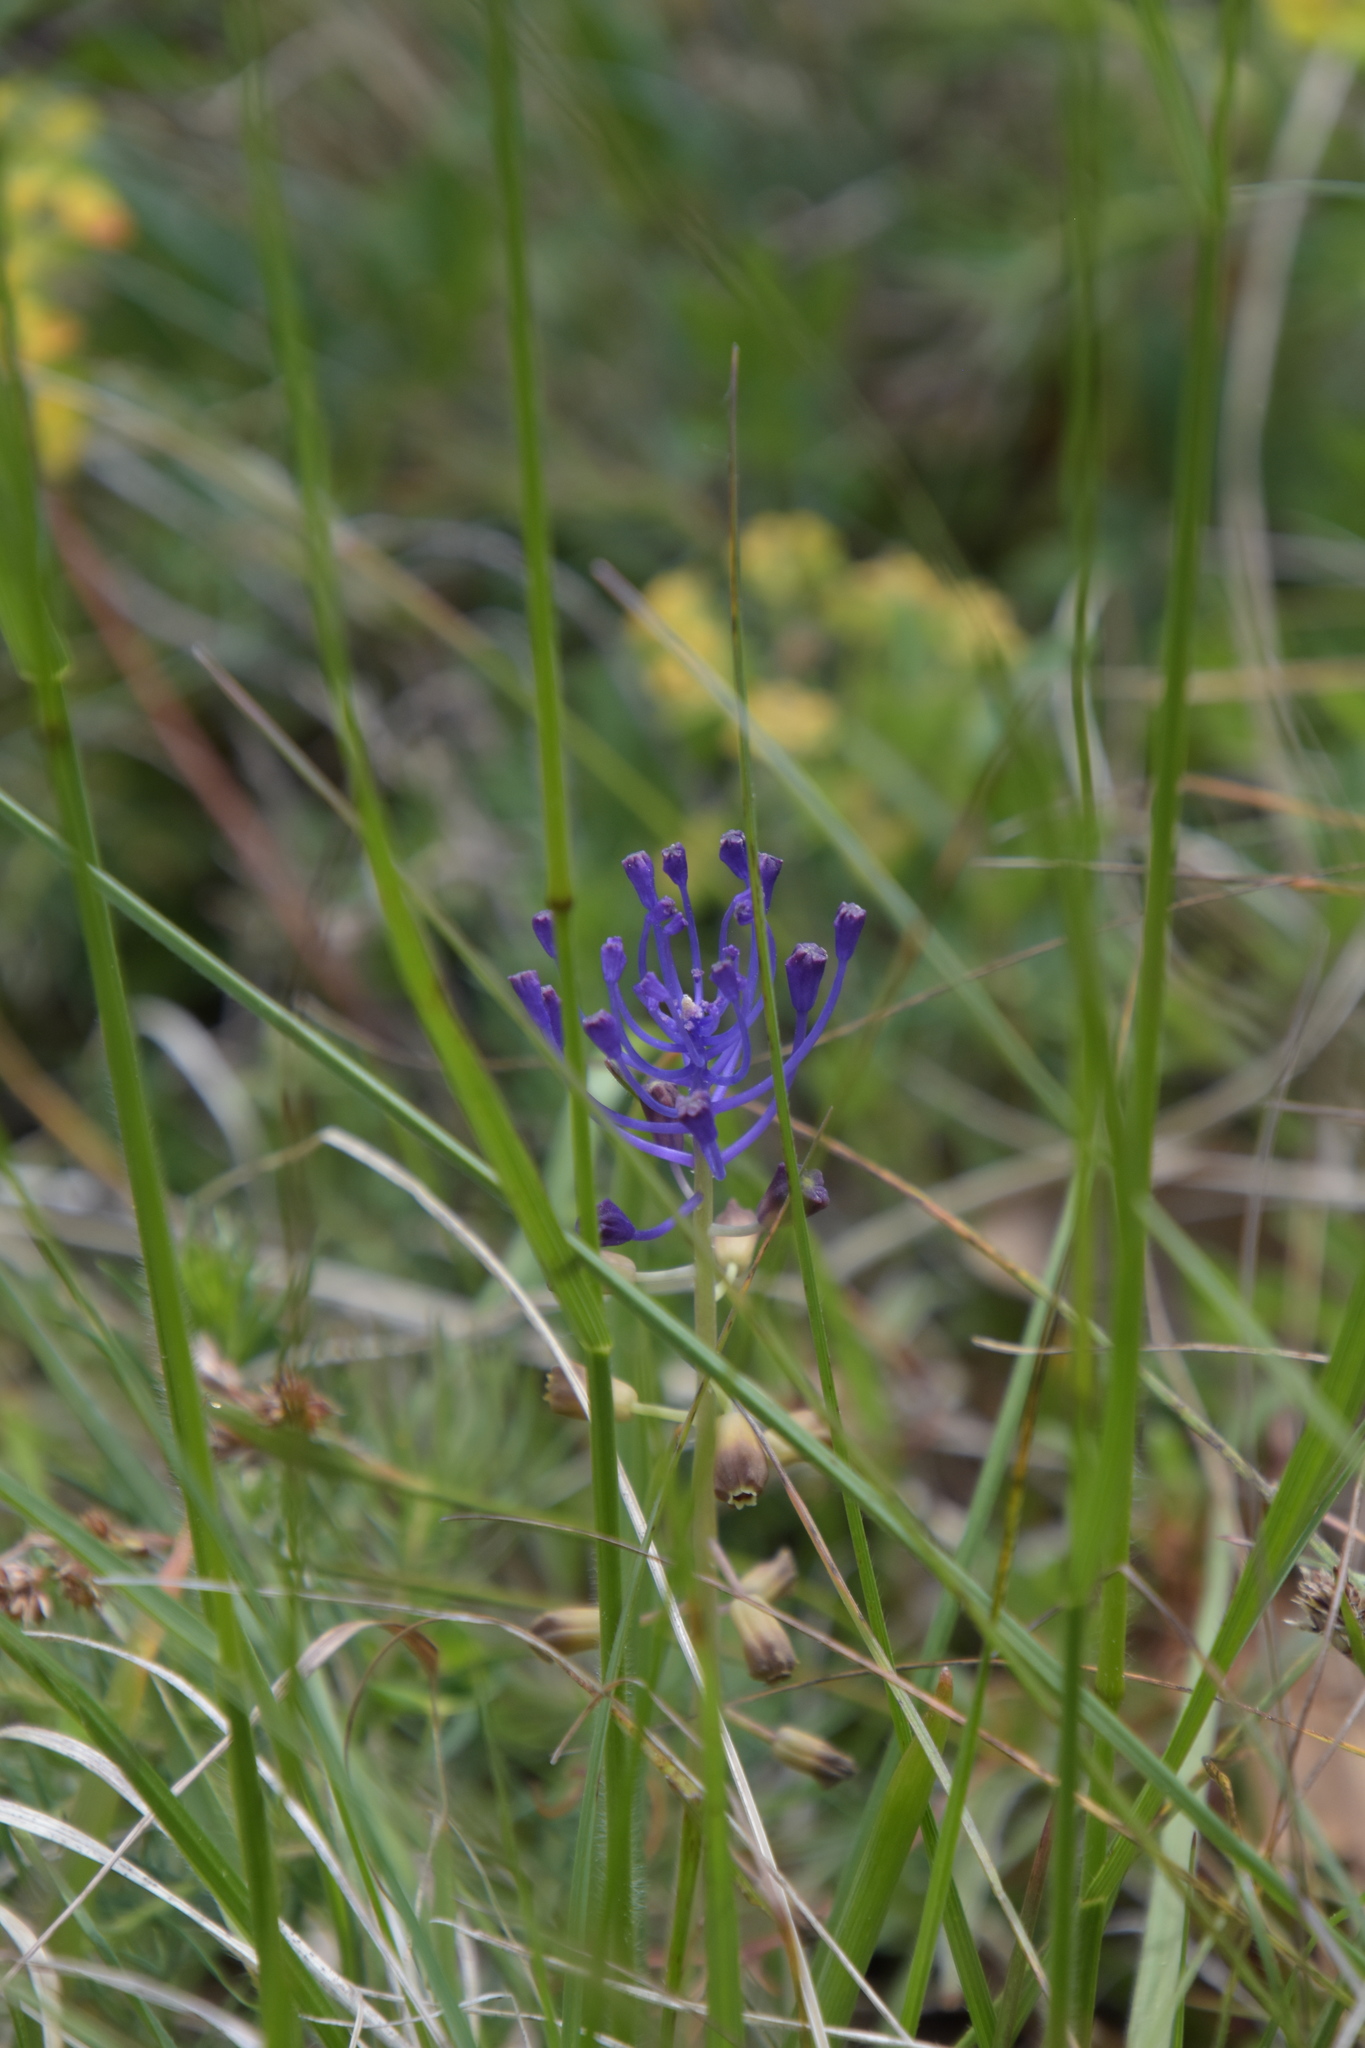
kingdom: Plantae
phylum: Tracheophyta
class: Liliopsida
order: Asparagales
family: Asparagaceae
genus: Muscari
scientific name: Muscari comosum
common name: Tassel hyacinth
